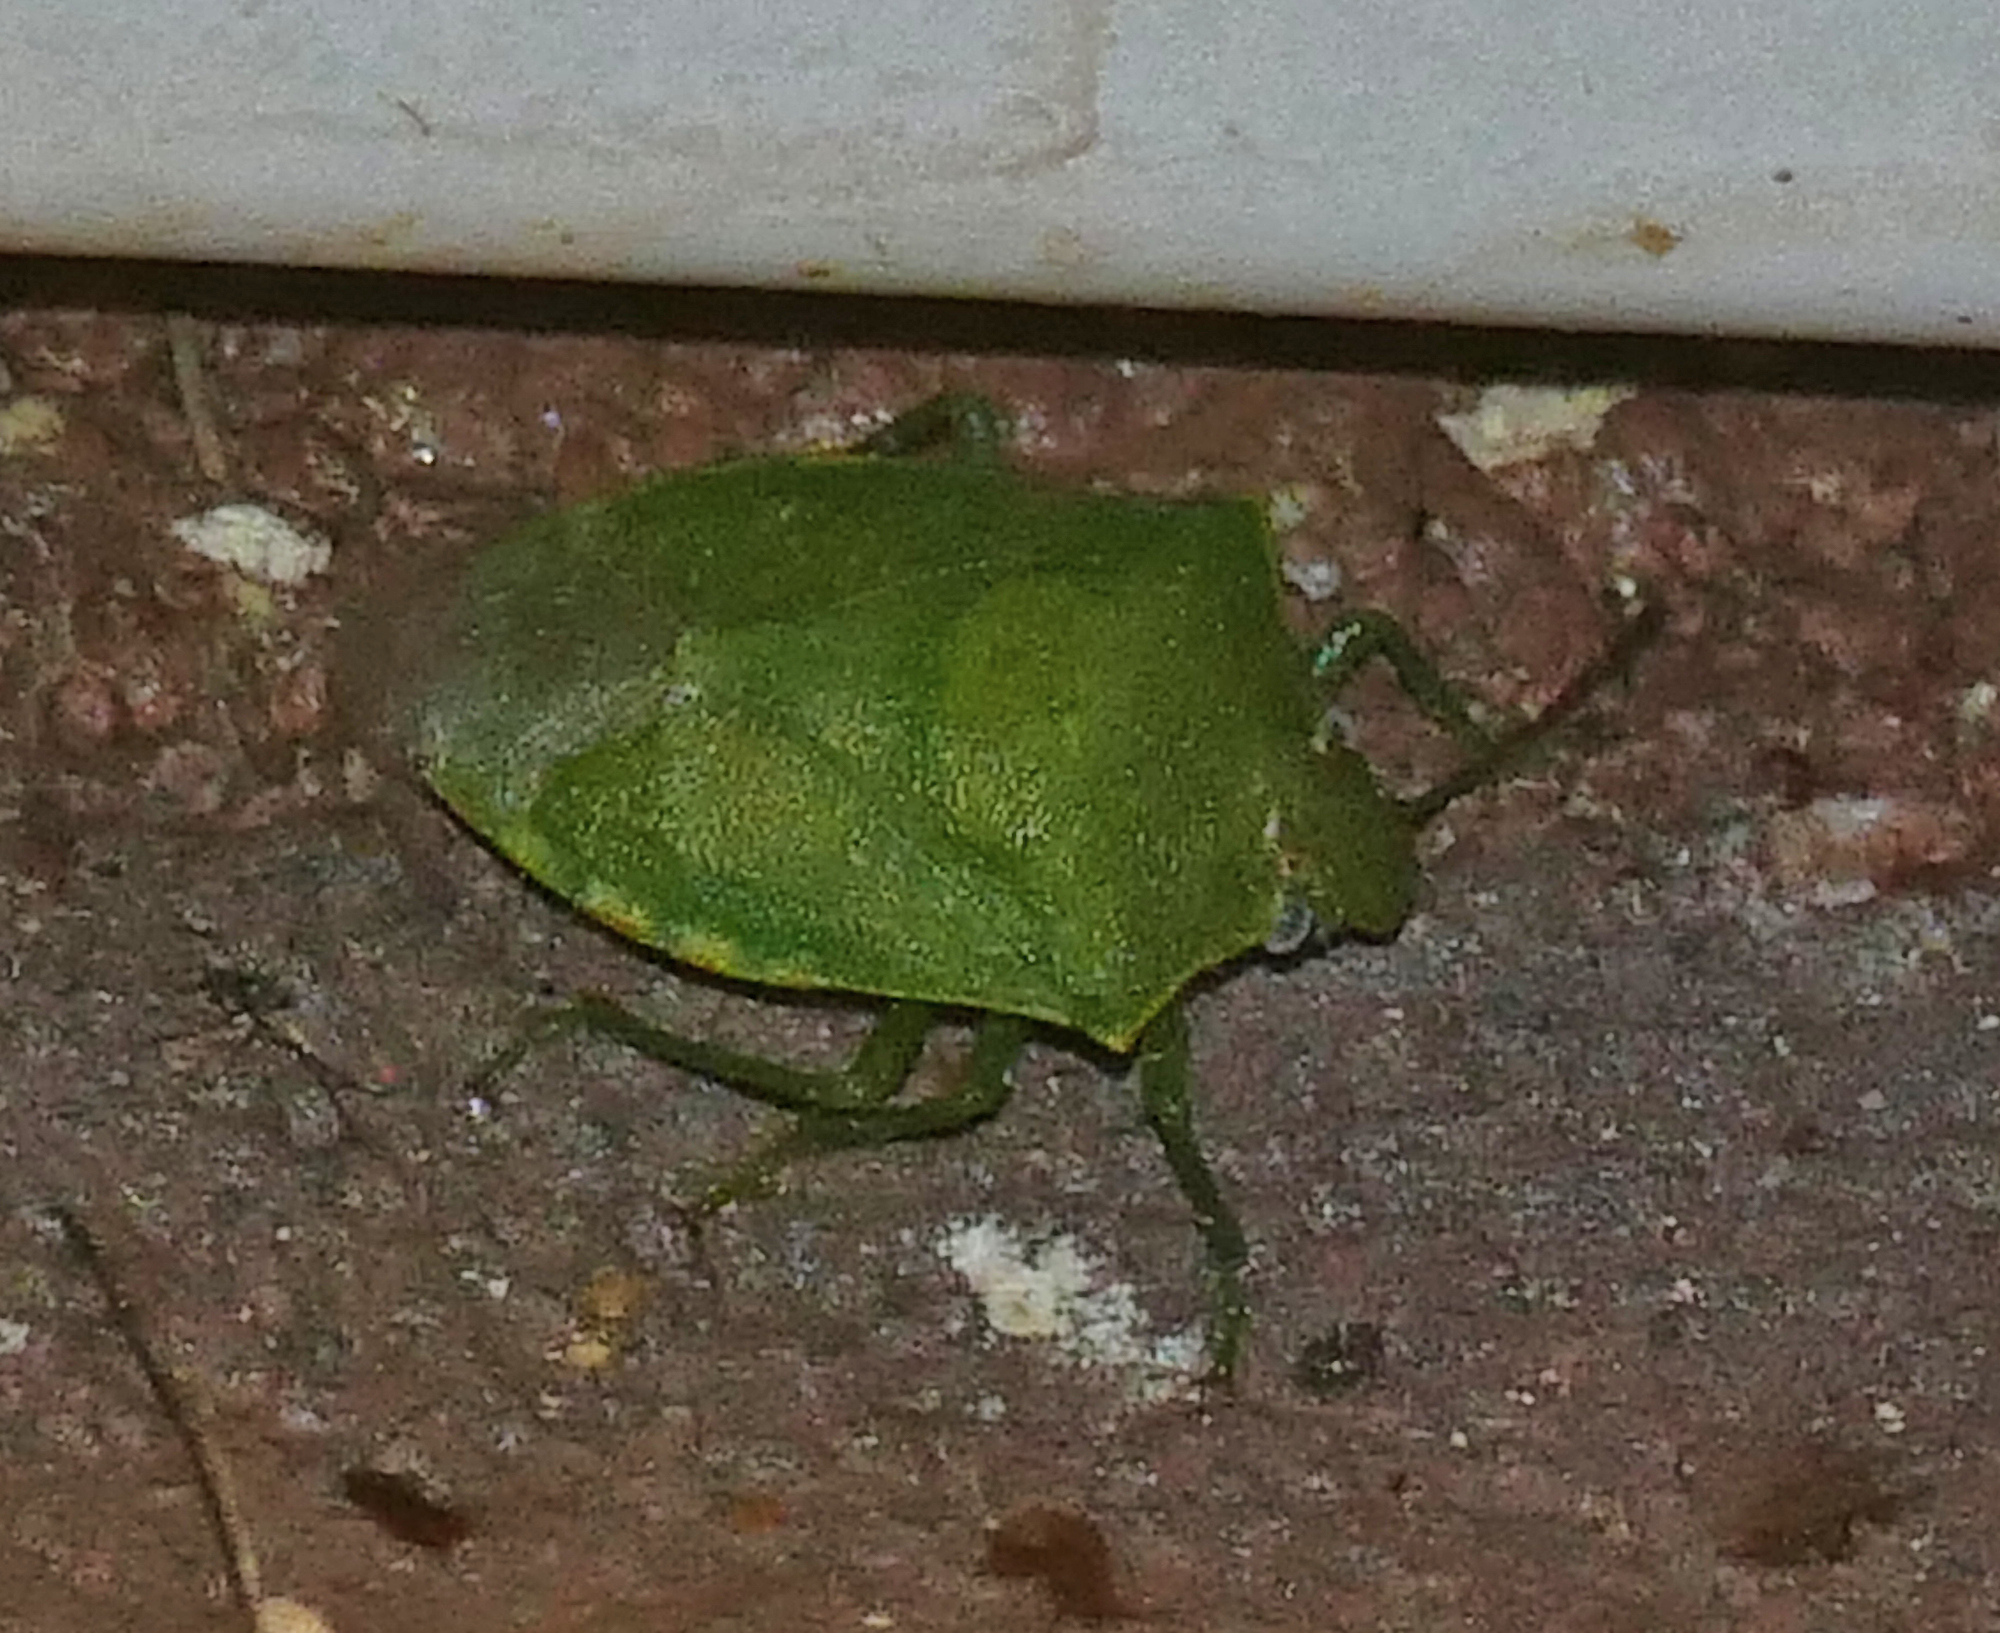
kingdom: Animalia
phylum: Arthropoda
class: Insecta
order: Hemiptera
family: Pentatomidae
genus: Thyanta
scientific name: Thyanta custator
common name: Stink bug
